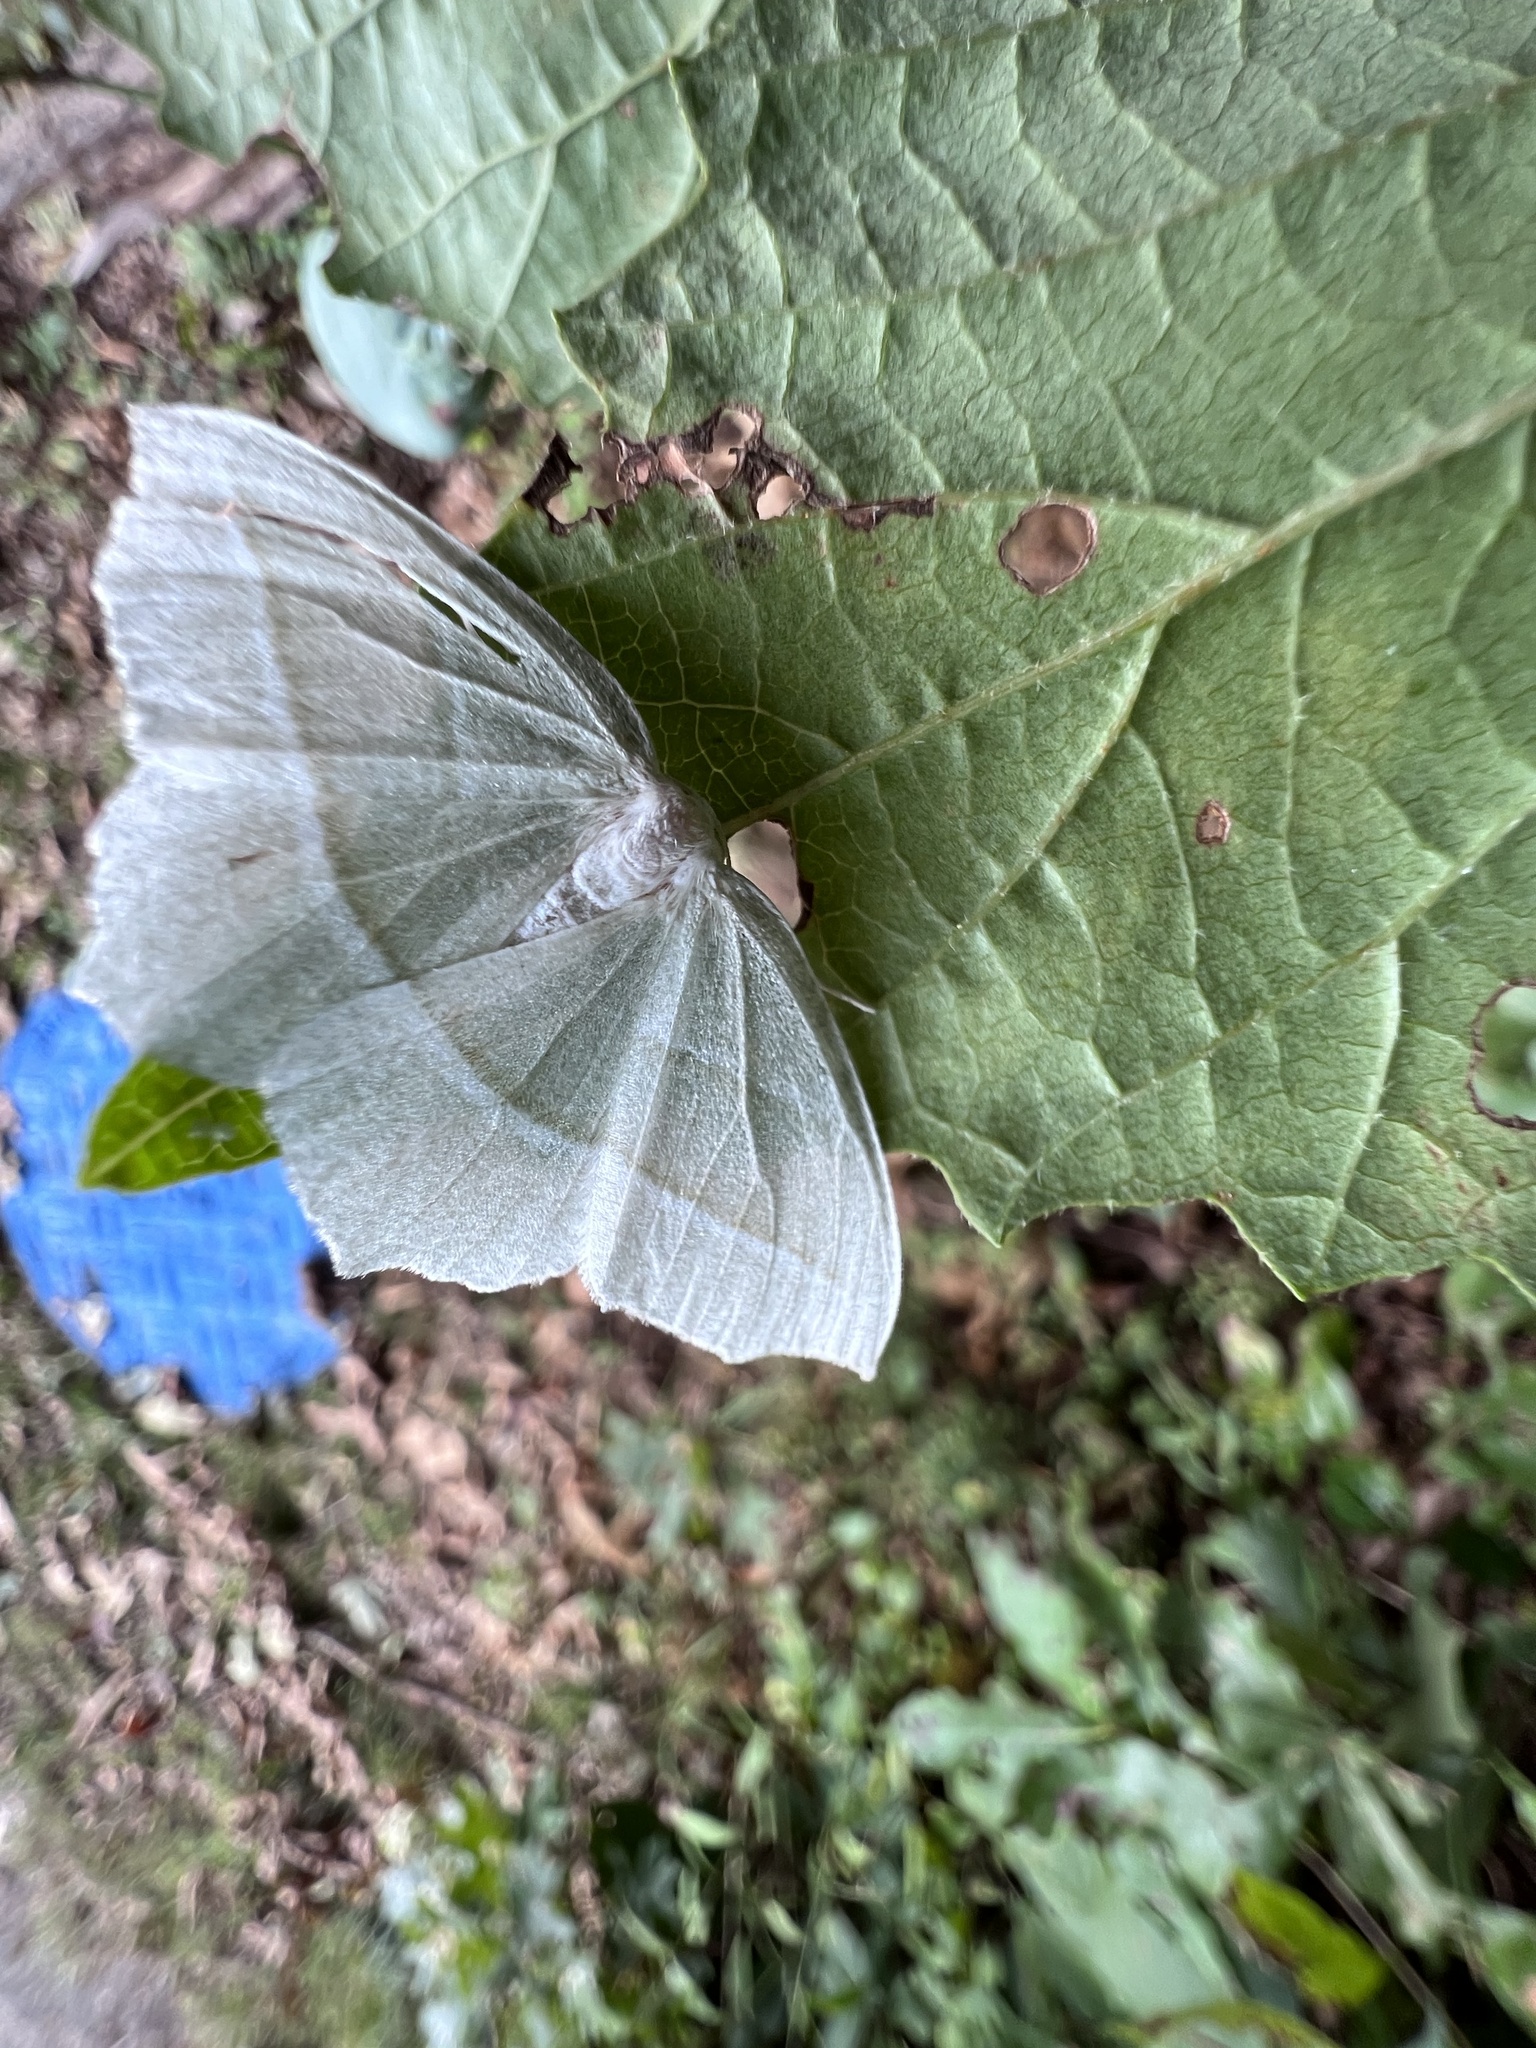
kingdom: Animalia
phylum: Arthropoda
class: Insecta
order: Lepidoptera
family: Geometridae
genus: Campaea
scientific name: Campaea perlata
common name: Fringed looper
